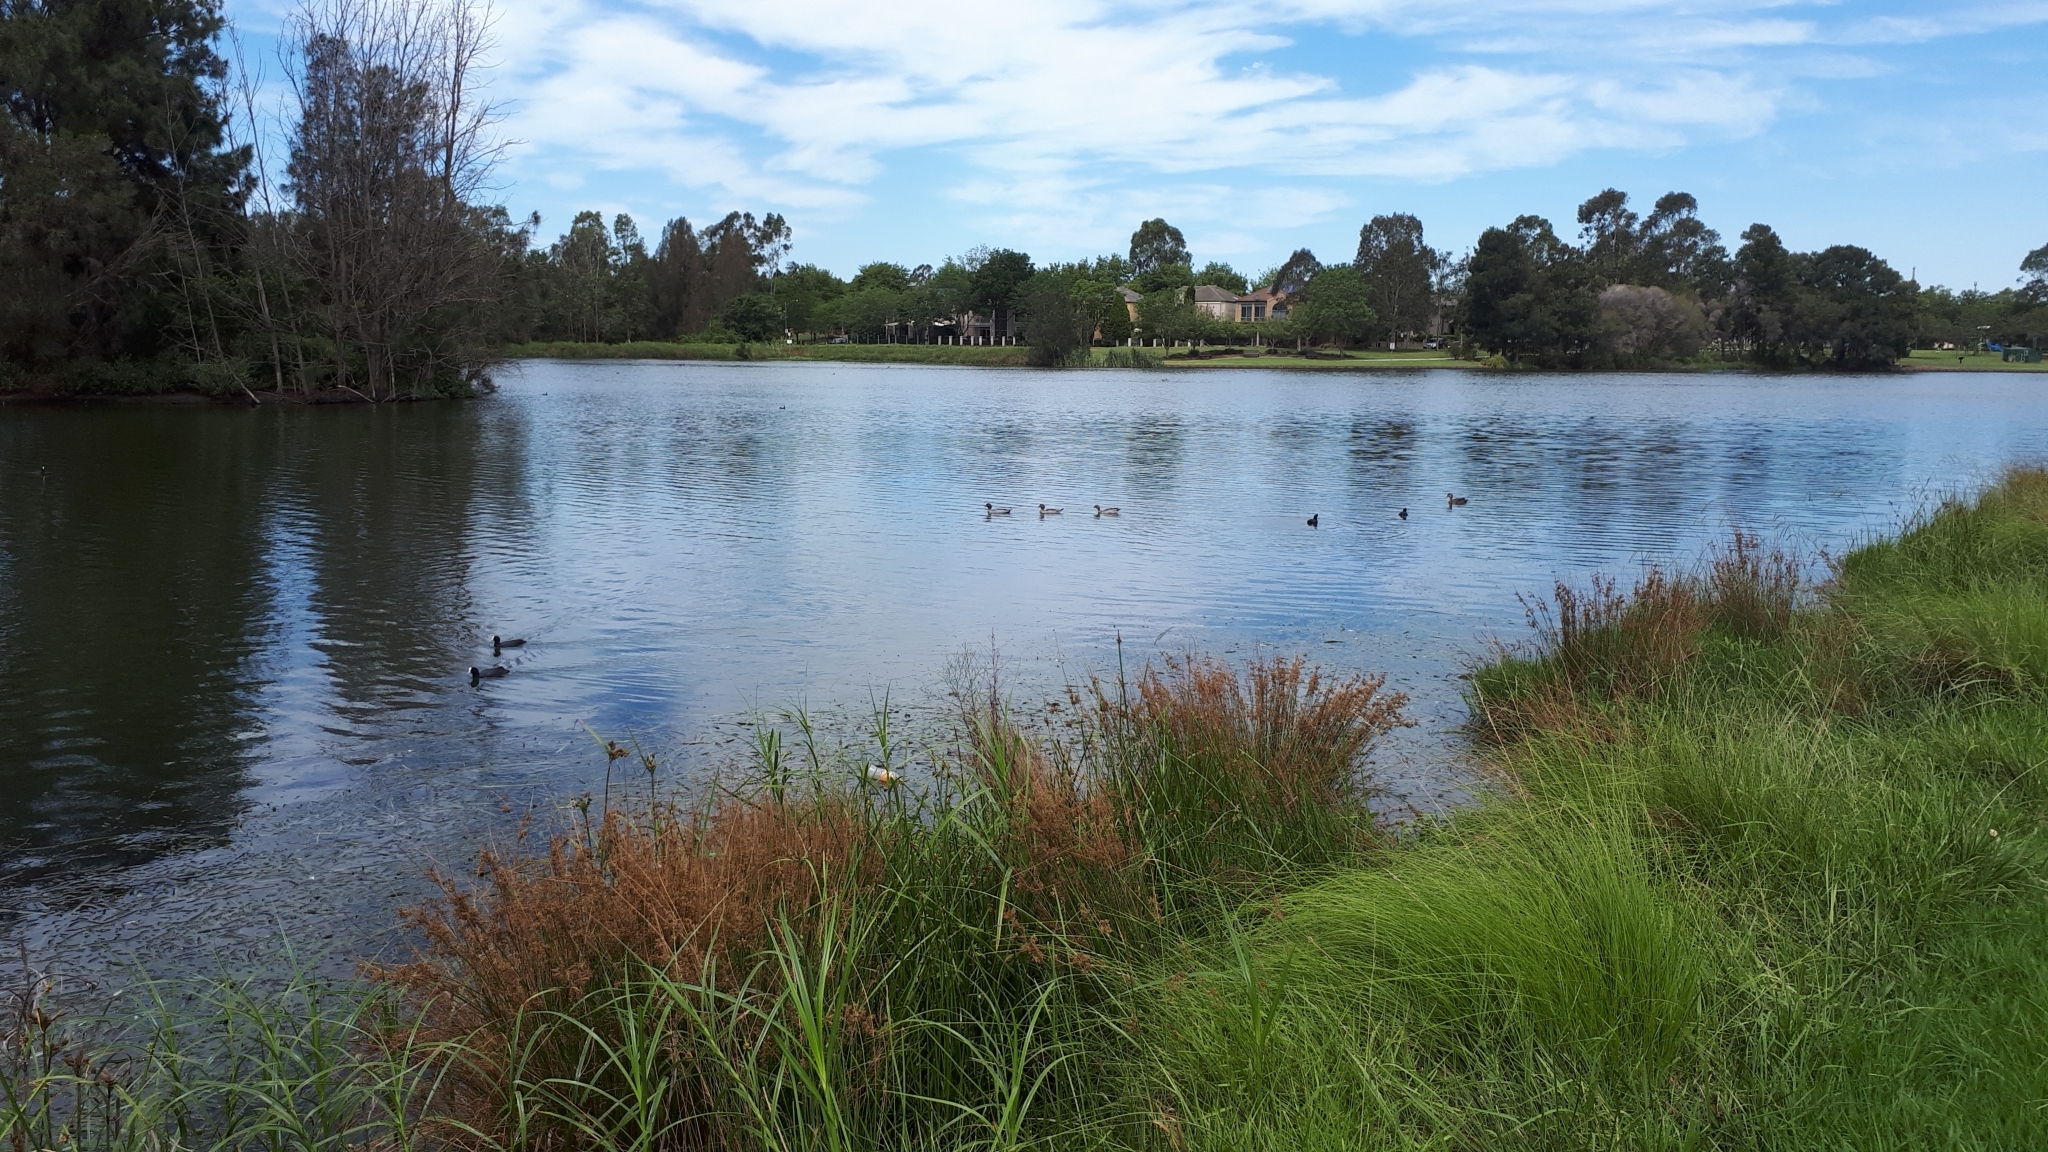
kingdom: Animalia
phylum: Chordata
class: Aves
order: Gruiformes
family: Rallidae
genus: Fulica
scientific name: Fulica atra
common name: Eurasian coot
